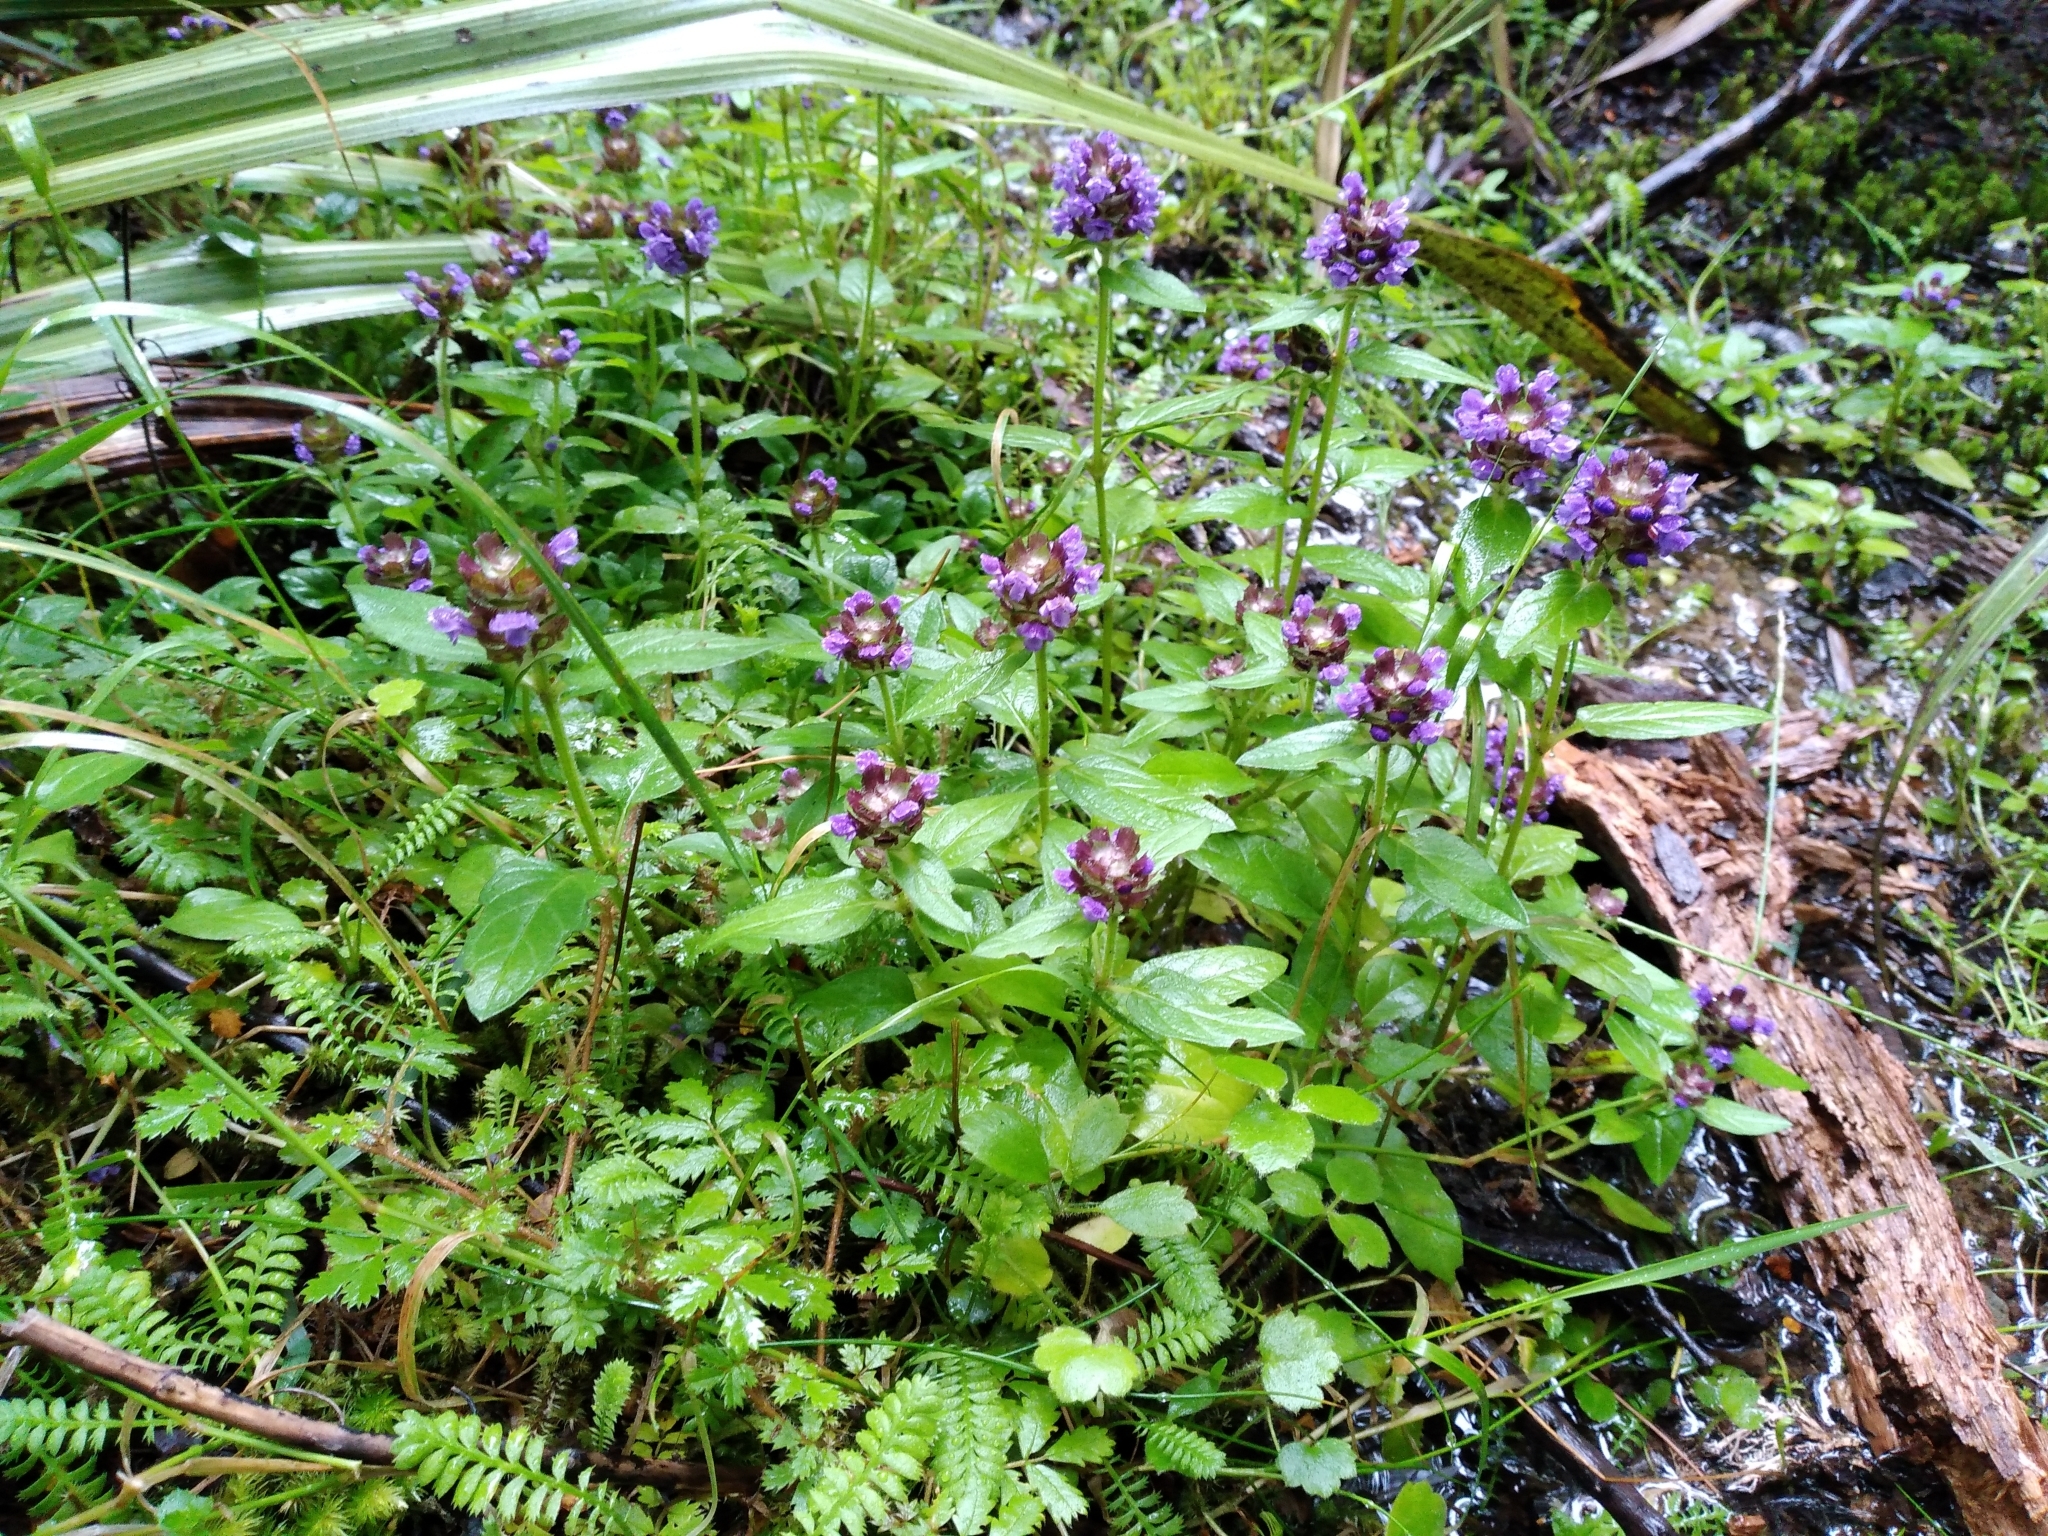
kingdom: Plantae
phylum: Tracheophyta
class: Magnoliopsida
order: Lamiales
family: Lamiaceae
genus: Prunella
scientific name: Prunella vulgaris
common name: Heal-all
